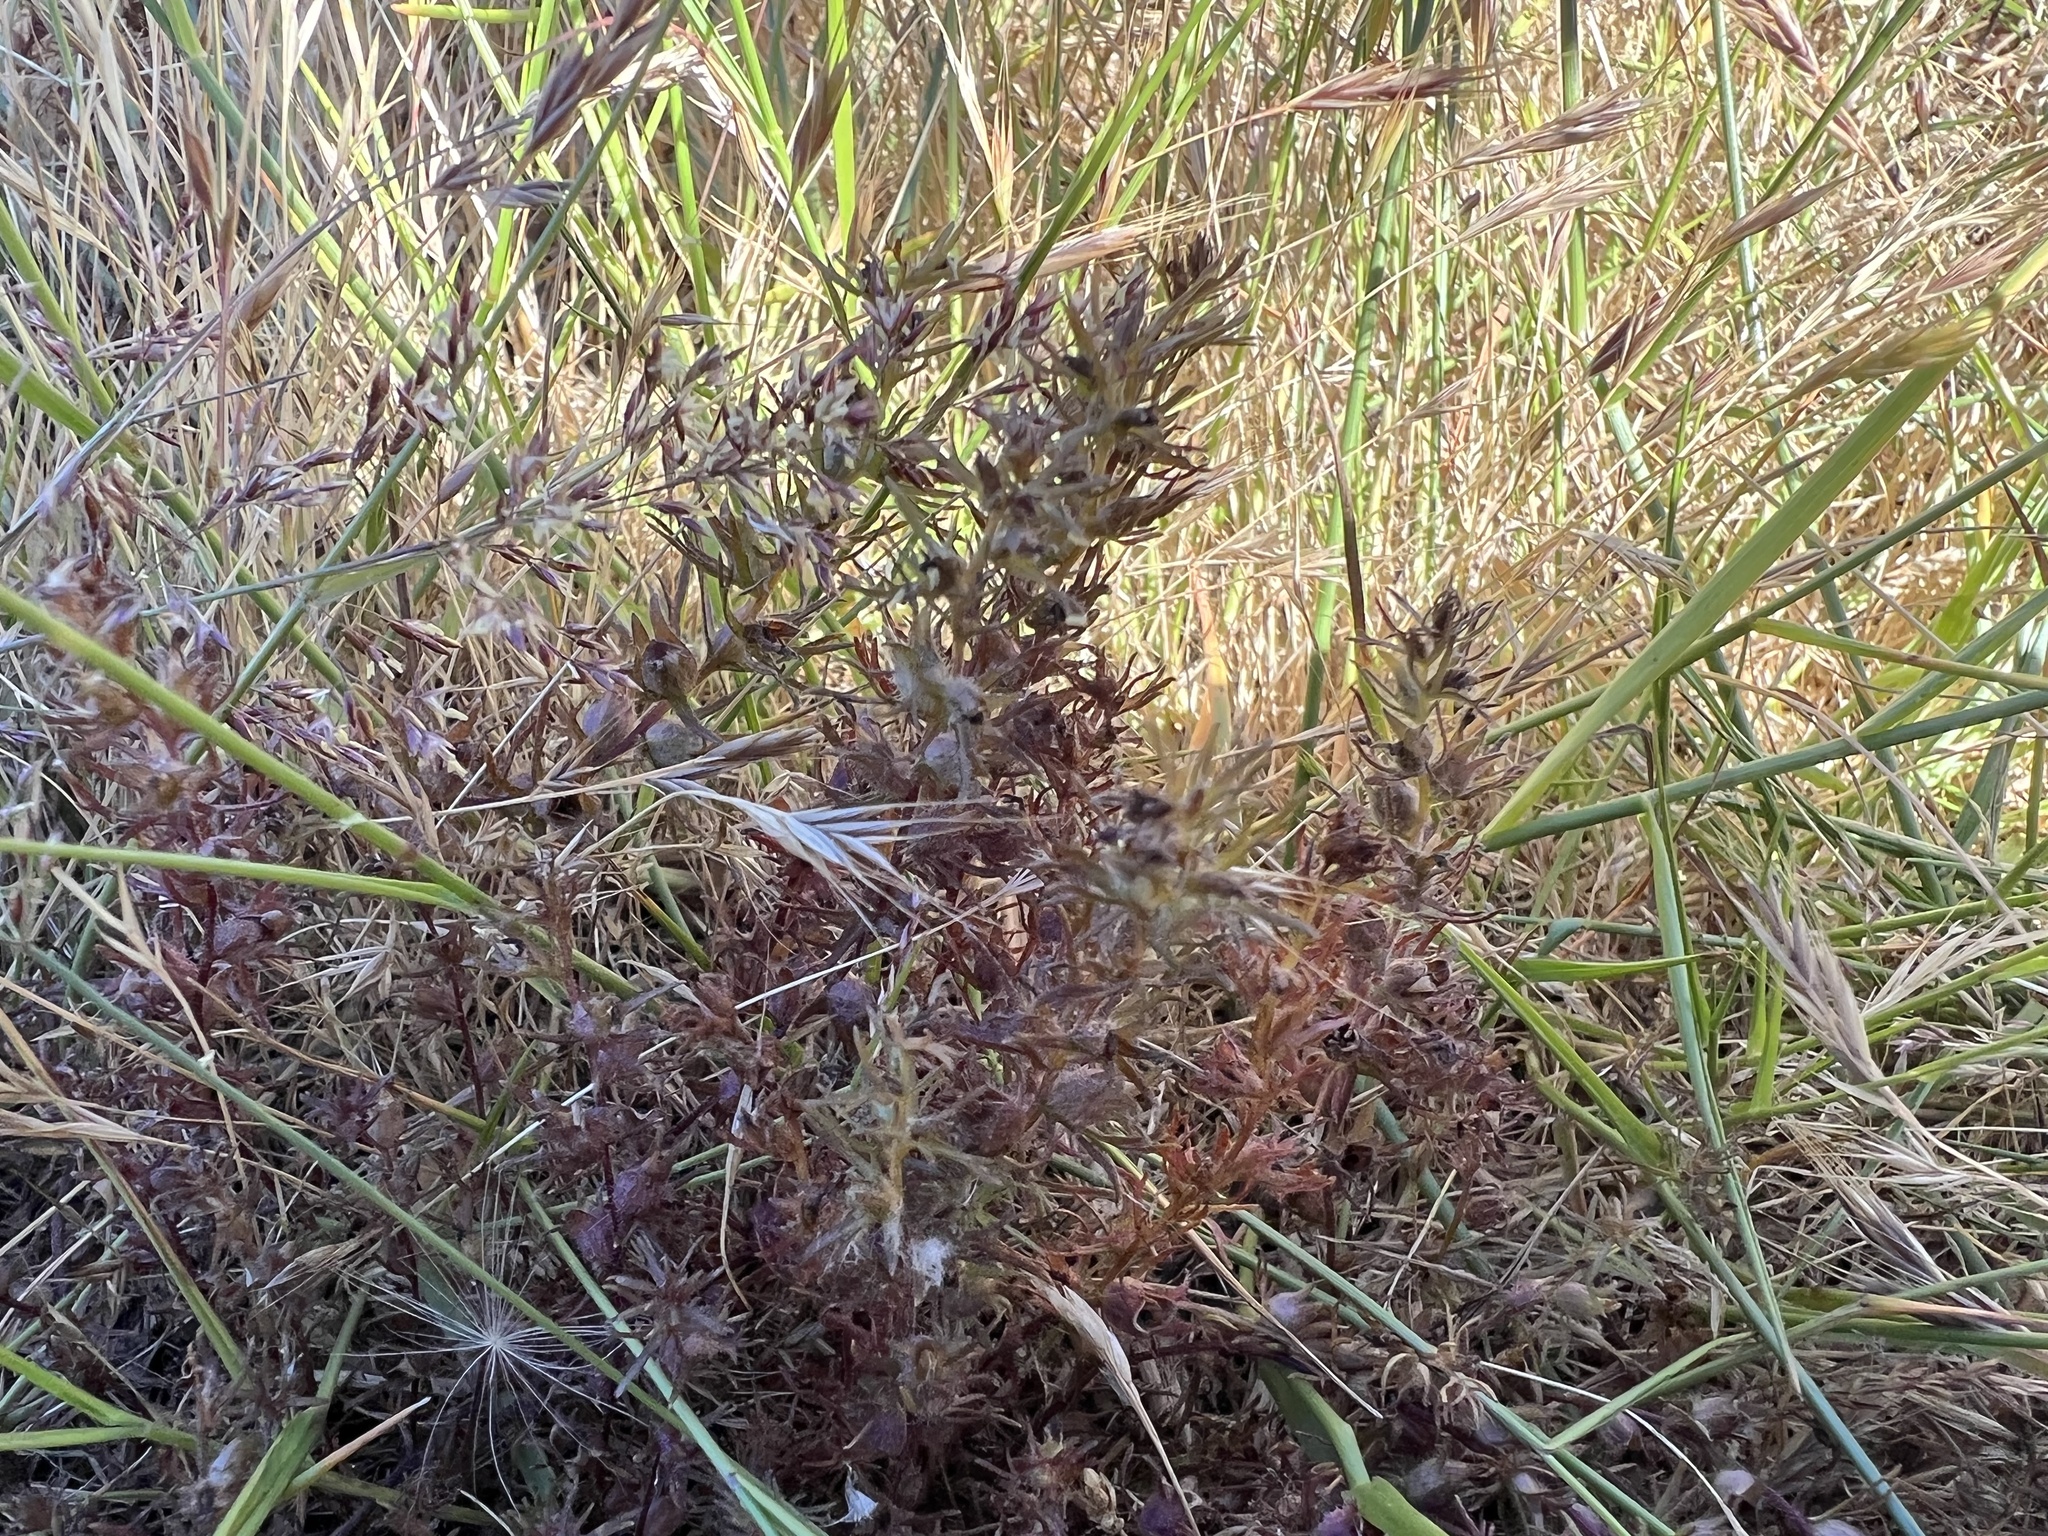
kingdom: Plantae
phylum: Tracheophyta
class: Magnoliopsida
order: Lamiales
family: Orobanchaceae
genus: Triphysaria
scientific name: Triphysaria pusilla
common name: Dwarf false owl-clover
